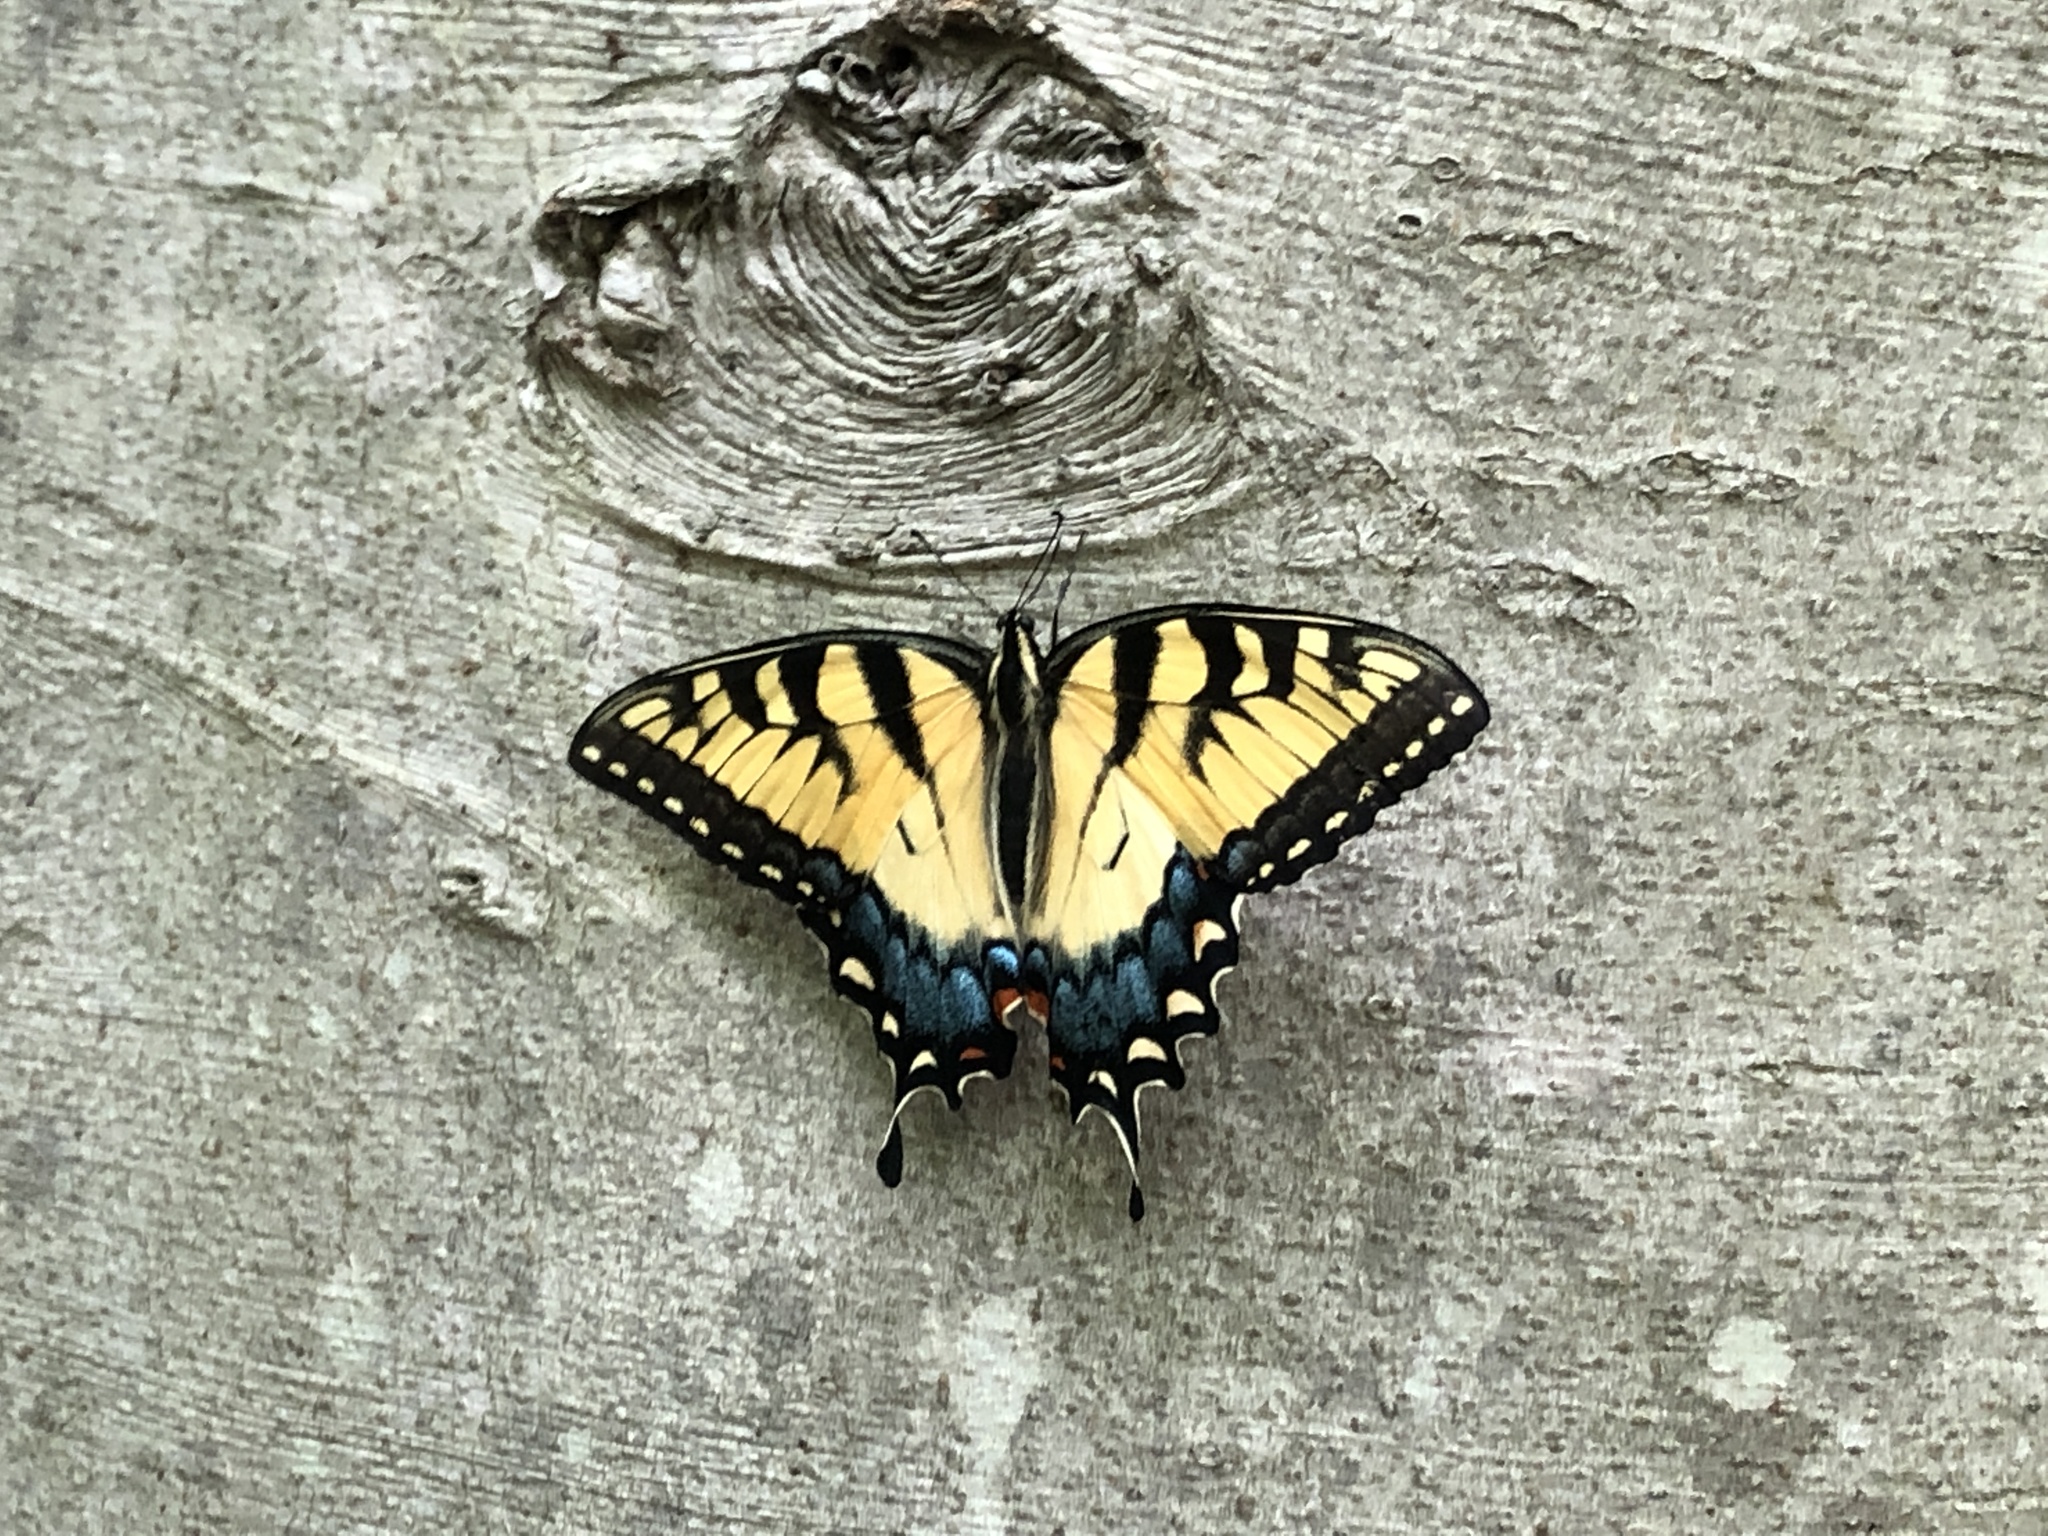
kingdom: Animalia
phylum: Arthropoda
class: Insecta
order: Lepidoptera
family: Papilionidae
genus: Papilio
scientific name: Papilio glaucus
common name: Tiger swallowtail
